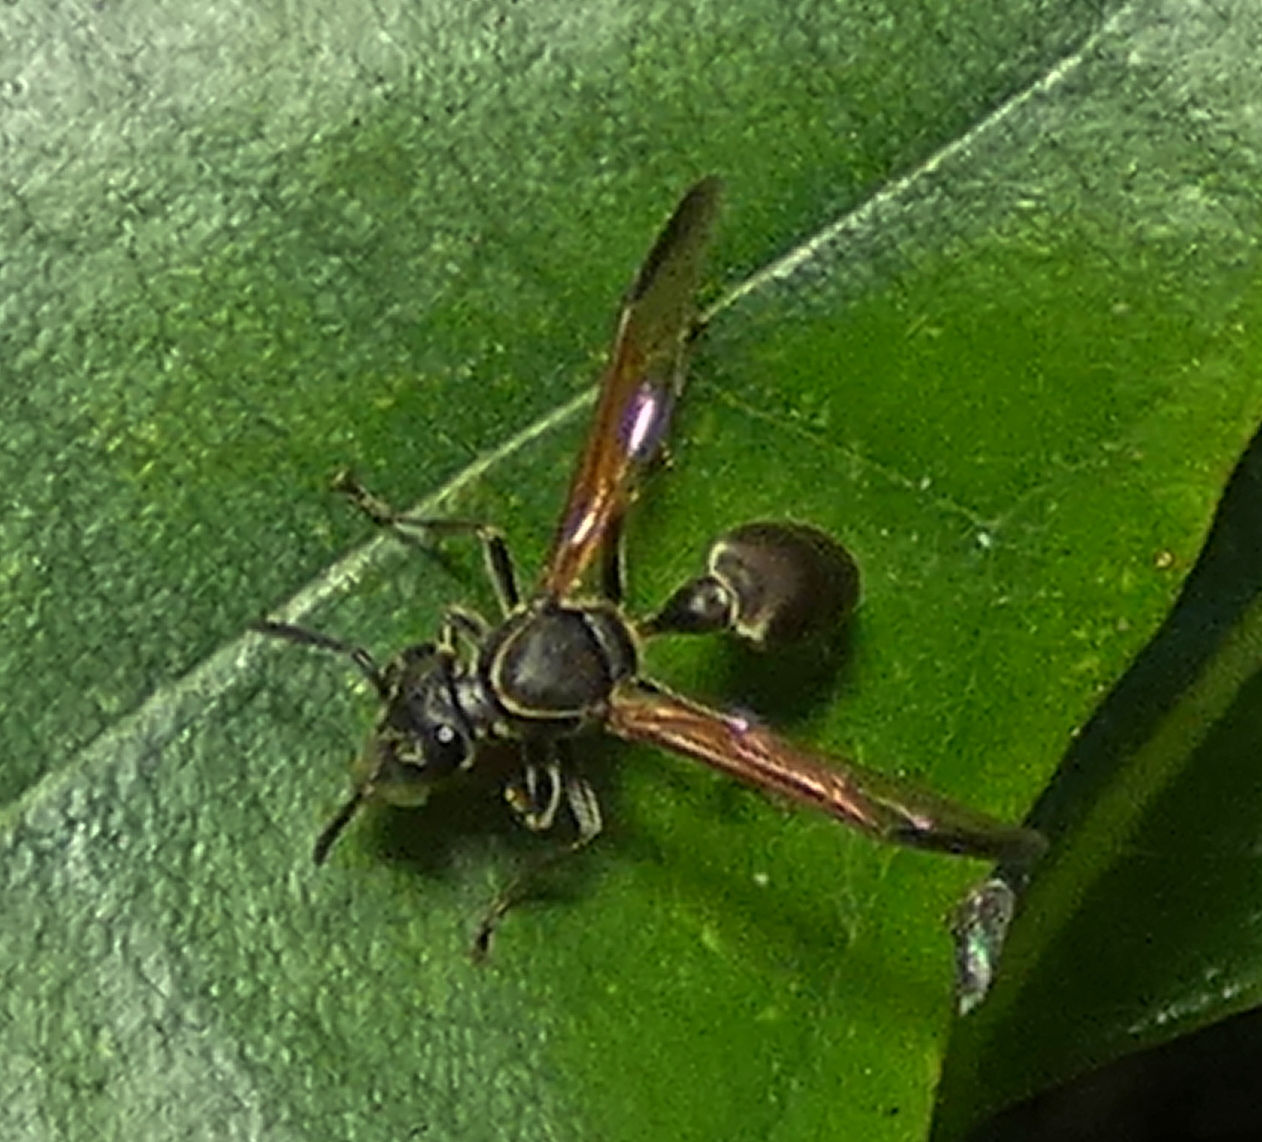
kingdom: Animalia
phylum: Arthropoda
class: Insecta
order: Hymenoptera
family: Eumenidae
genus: Polybia
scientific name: Polybia rejecta
